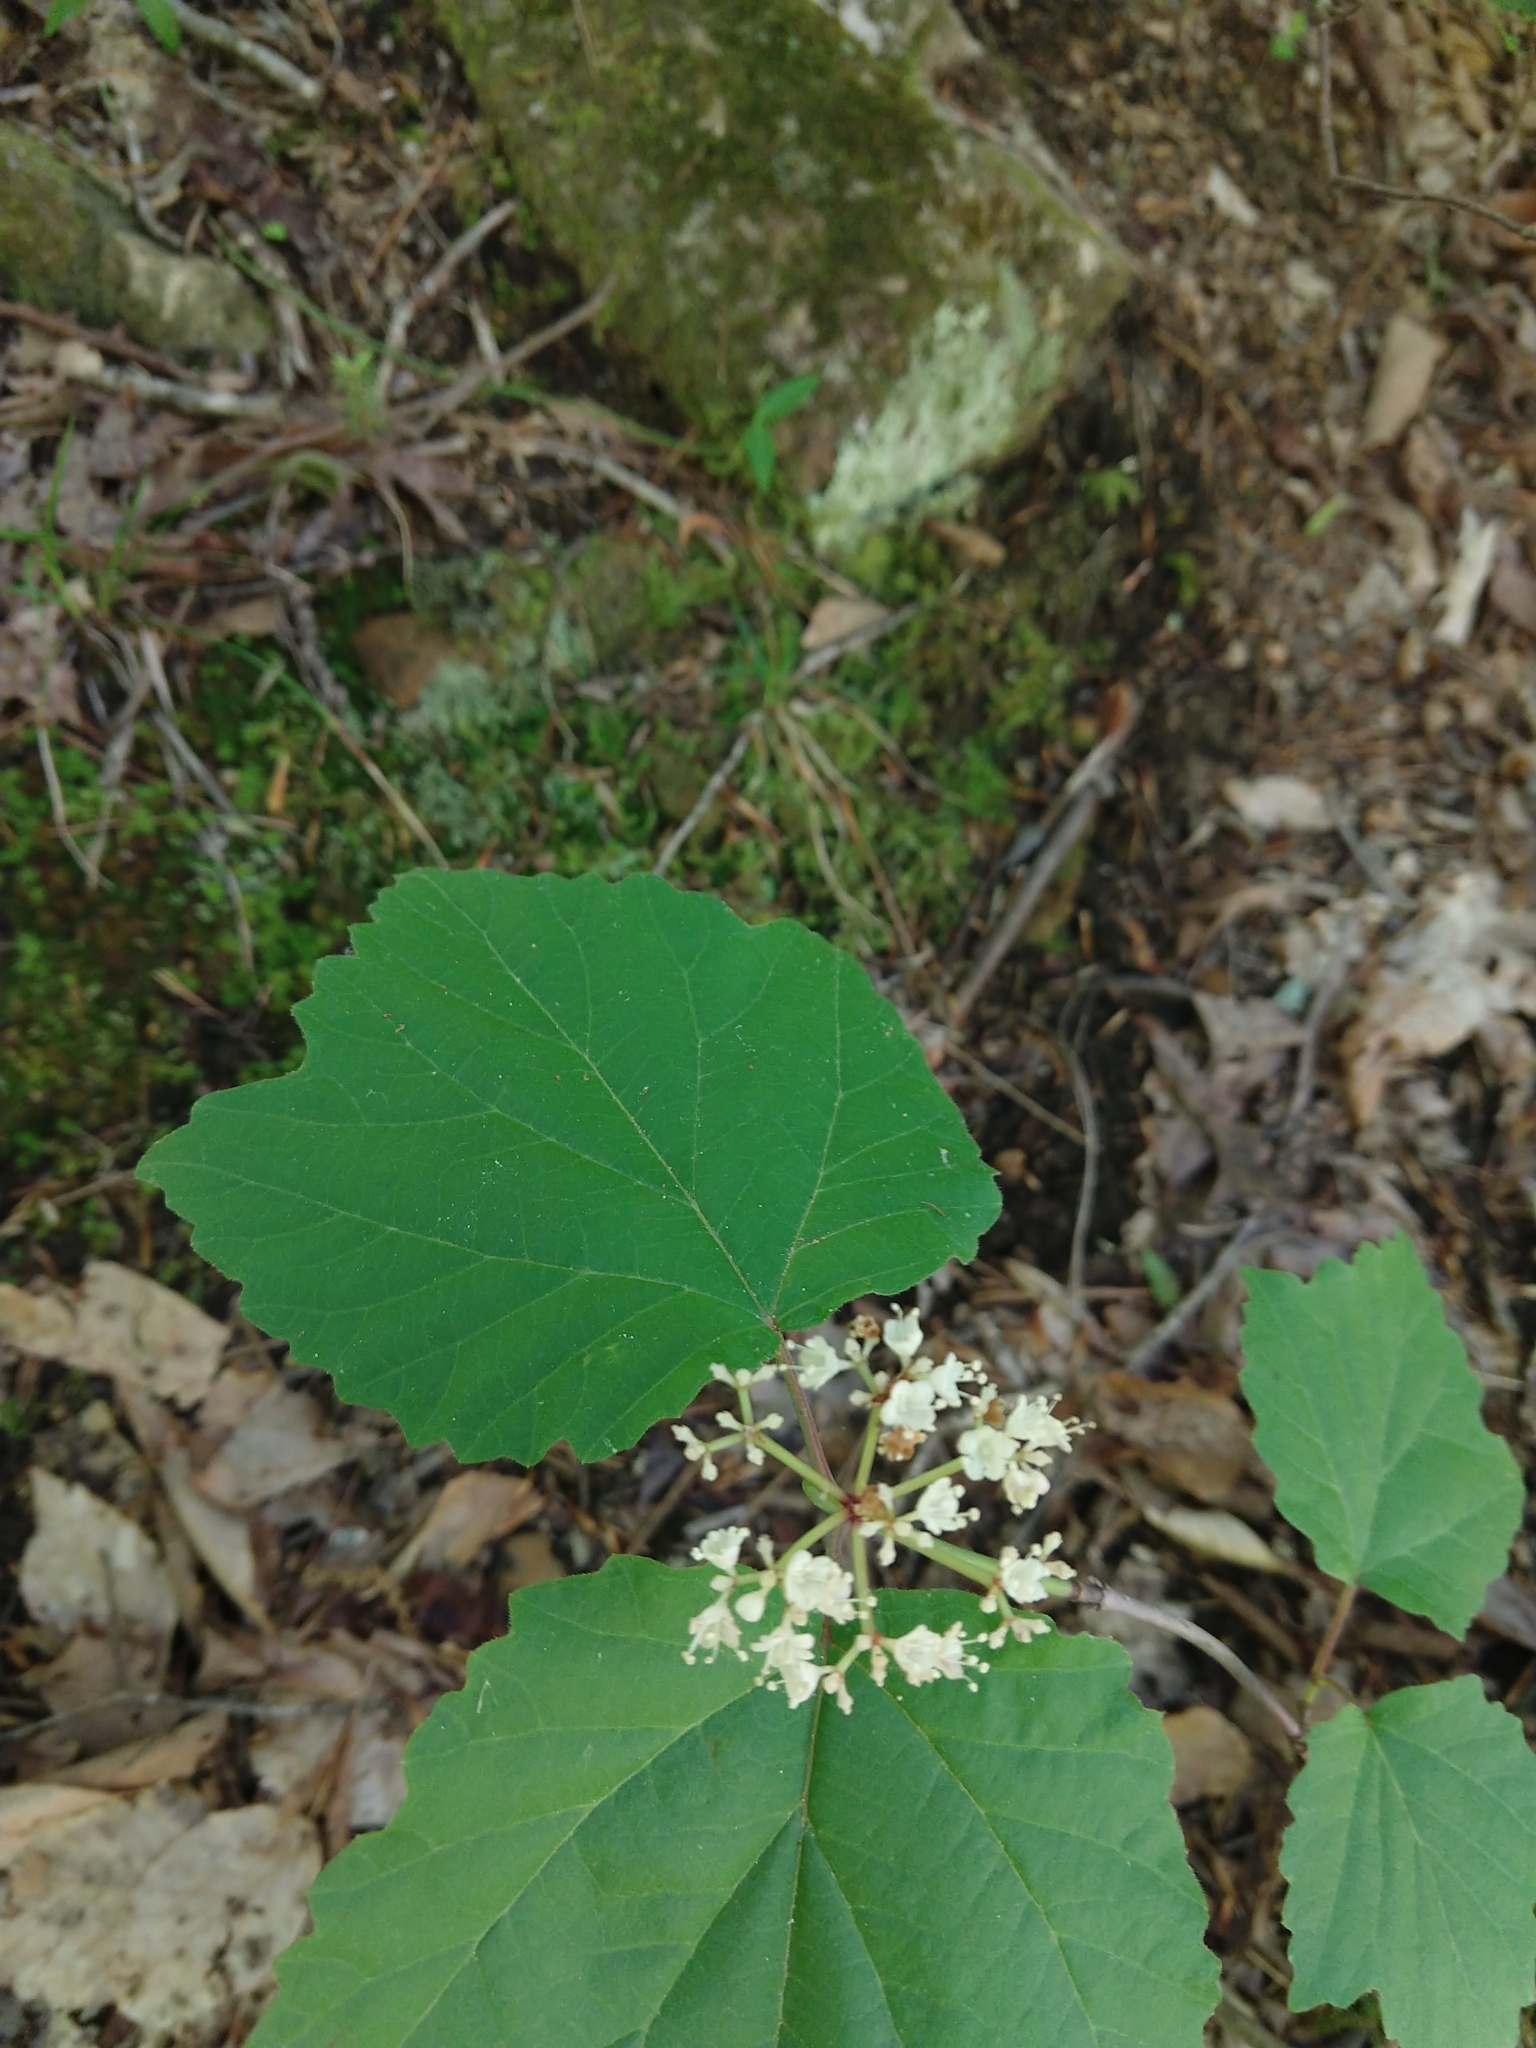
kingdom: Plantae
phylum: Tracheophyta
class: Magnoliopsida
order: Dipsacales
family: Viburnaceae
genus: Viburnum
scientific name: Viburnum acerifolium
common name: Dockmackie
